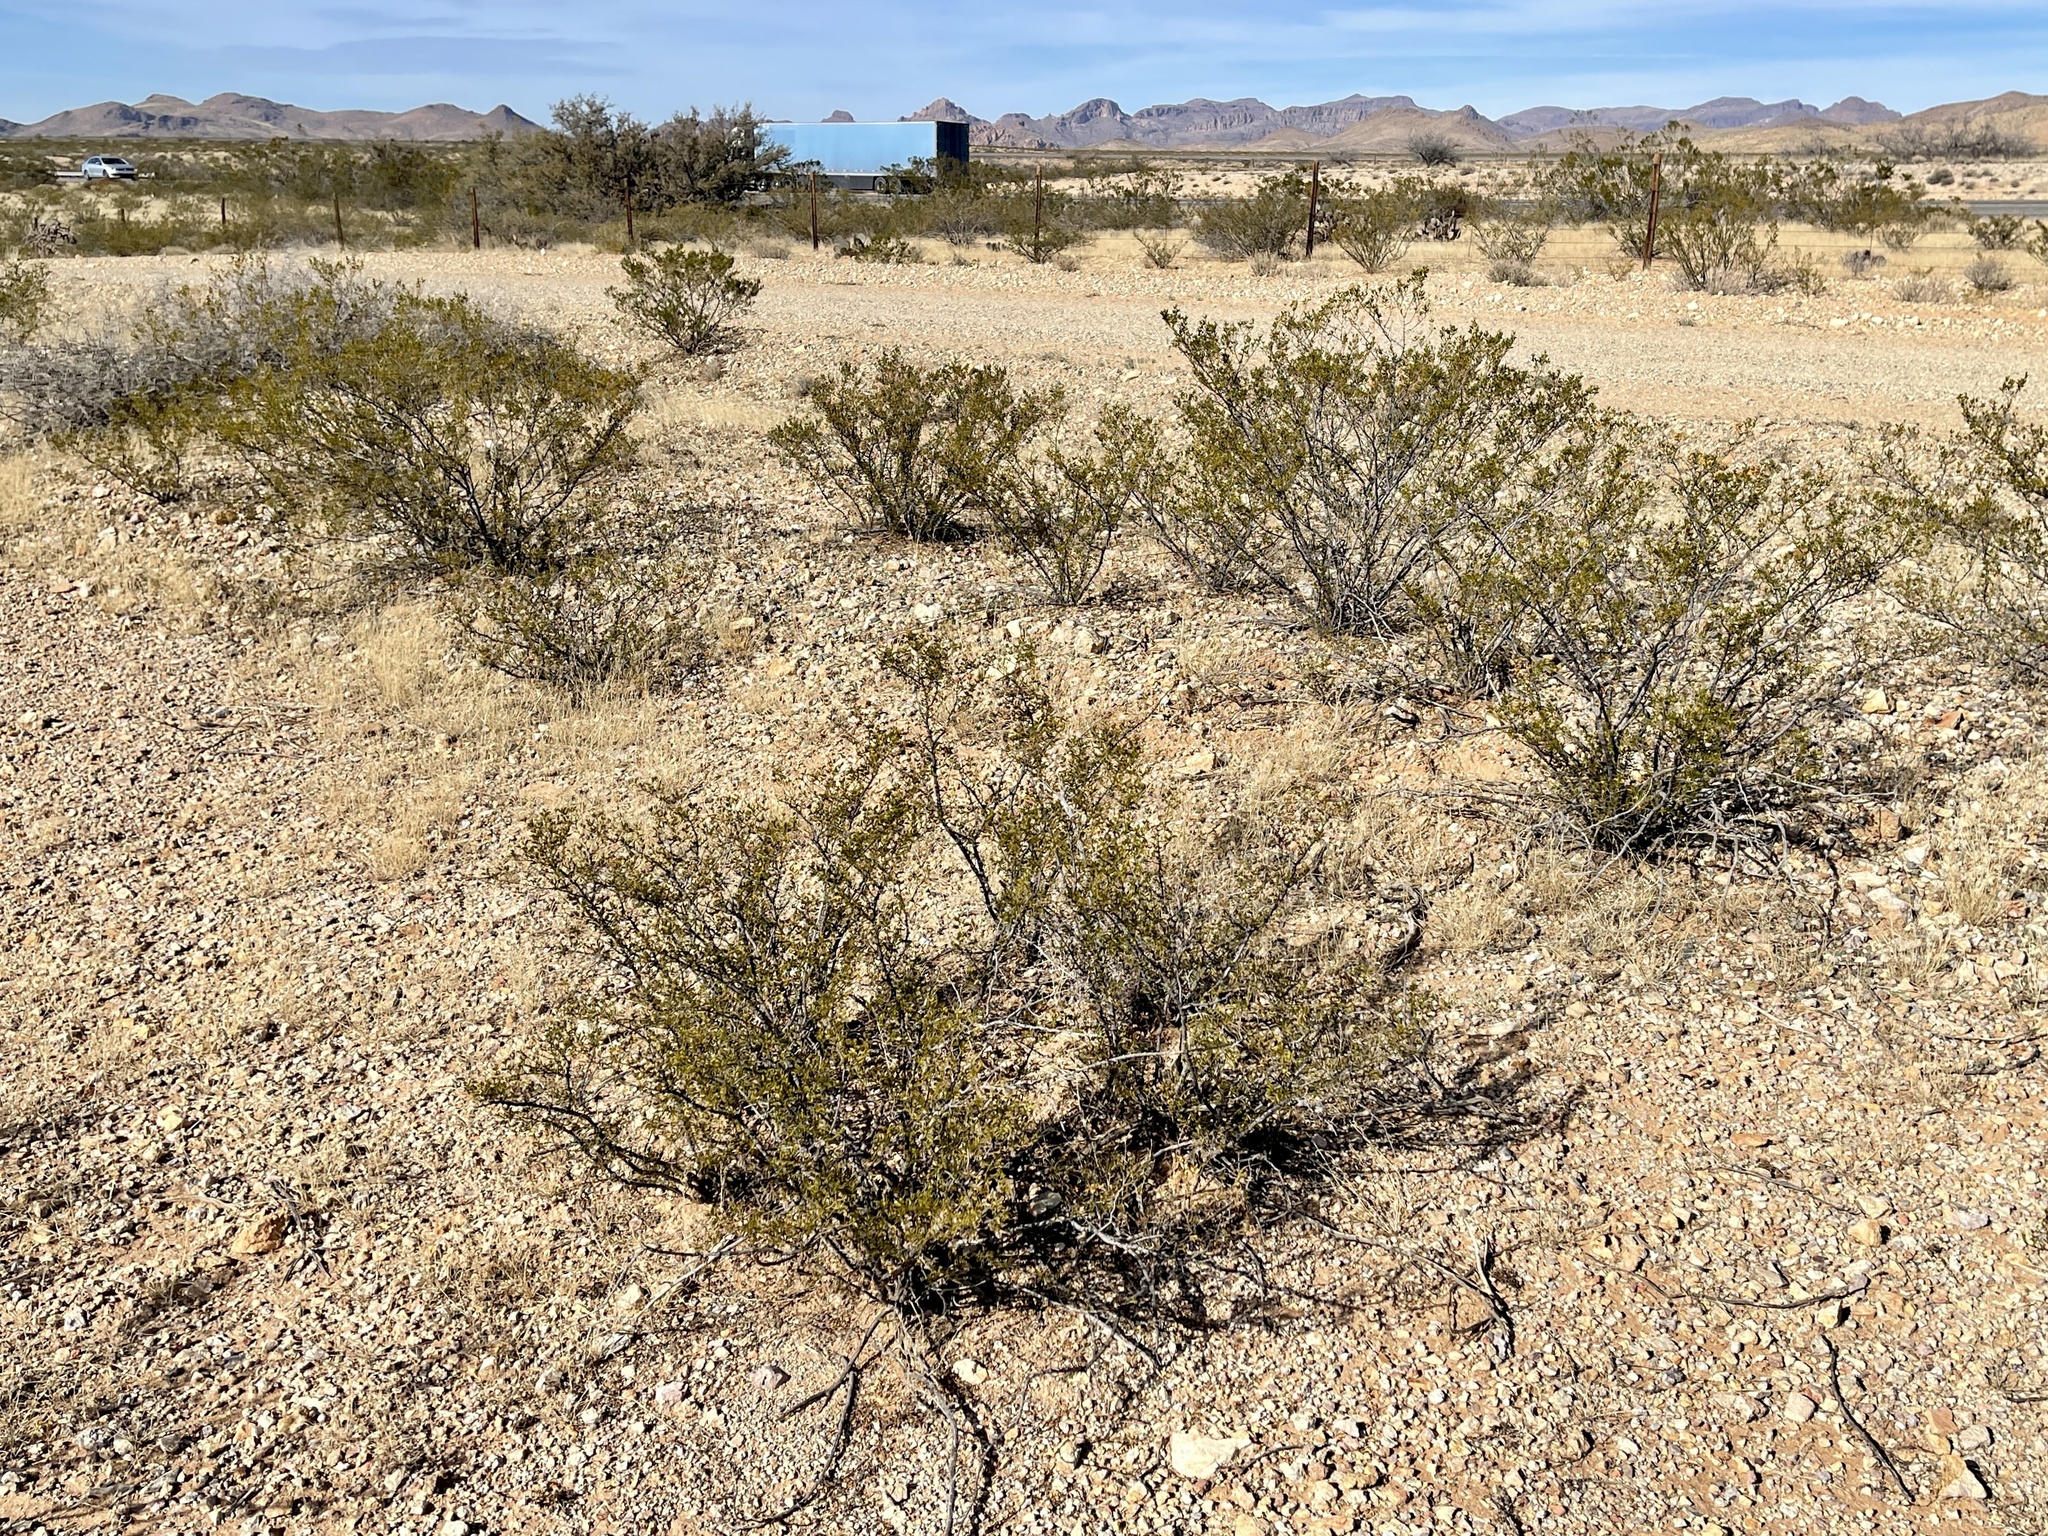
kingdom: Plantae
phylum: Tracheophyta
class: Magnoliopsida
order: Zygophyllales
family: Zygophyllaceae
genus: Larrea
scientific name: Larrea tridentata
